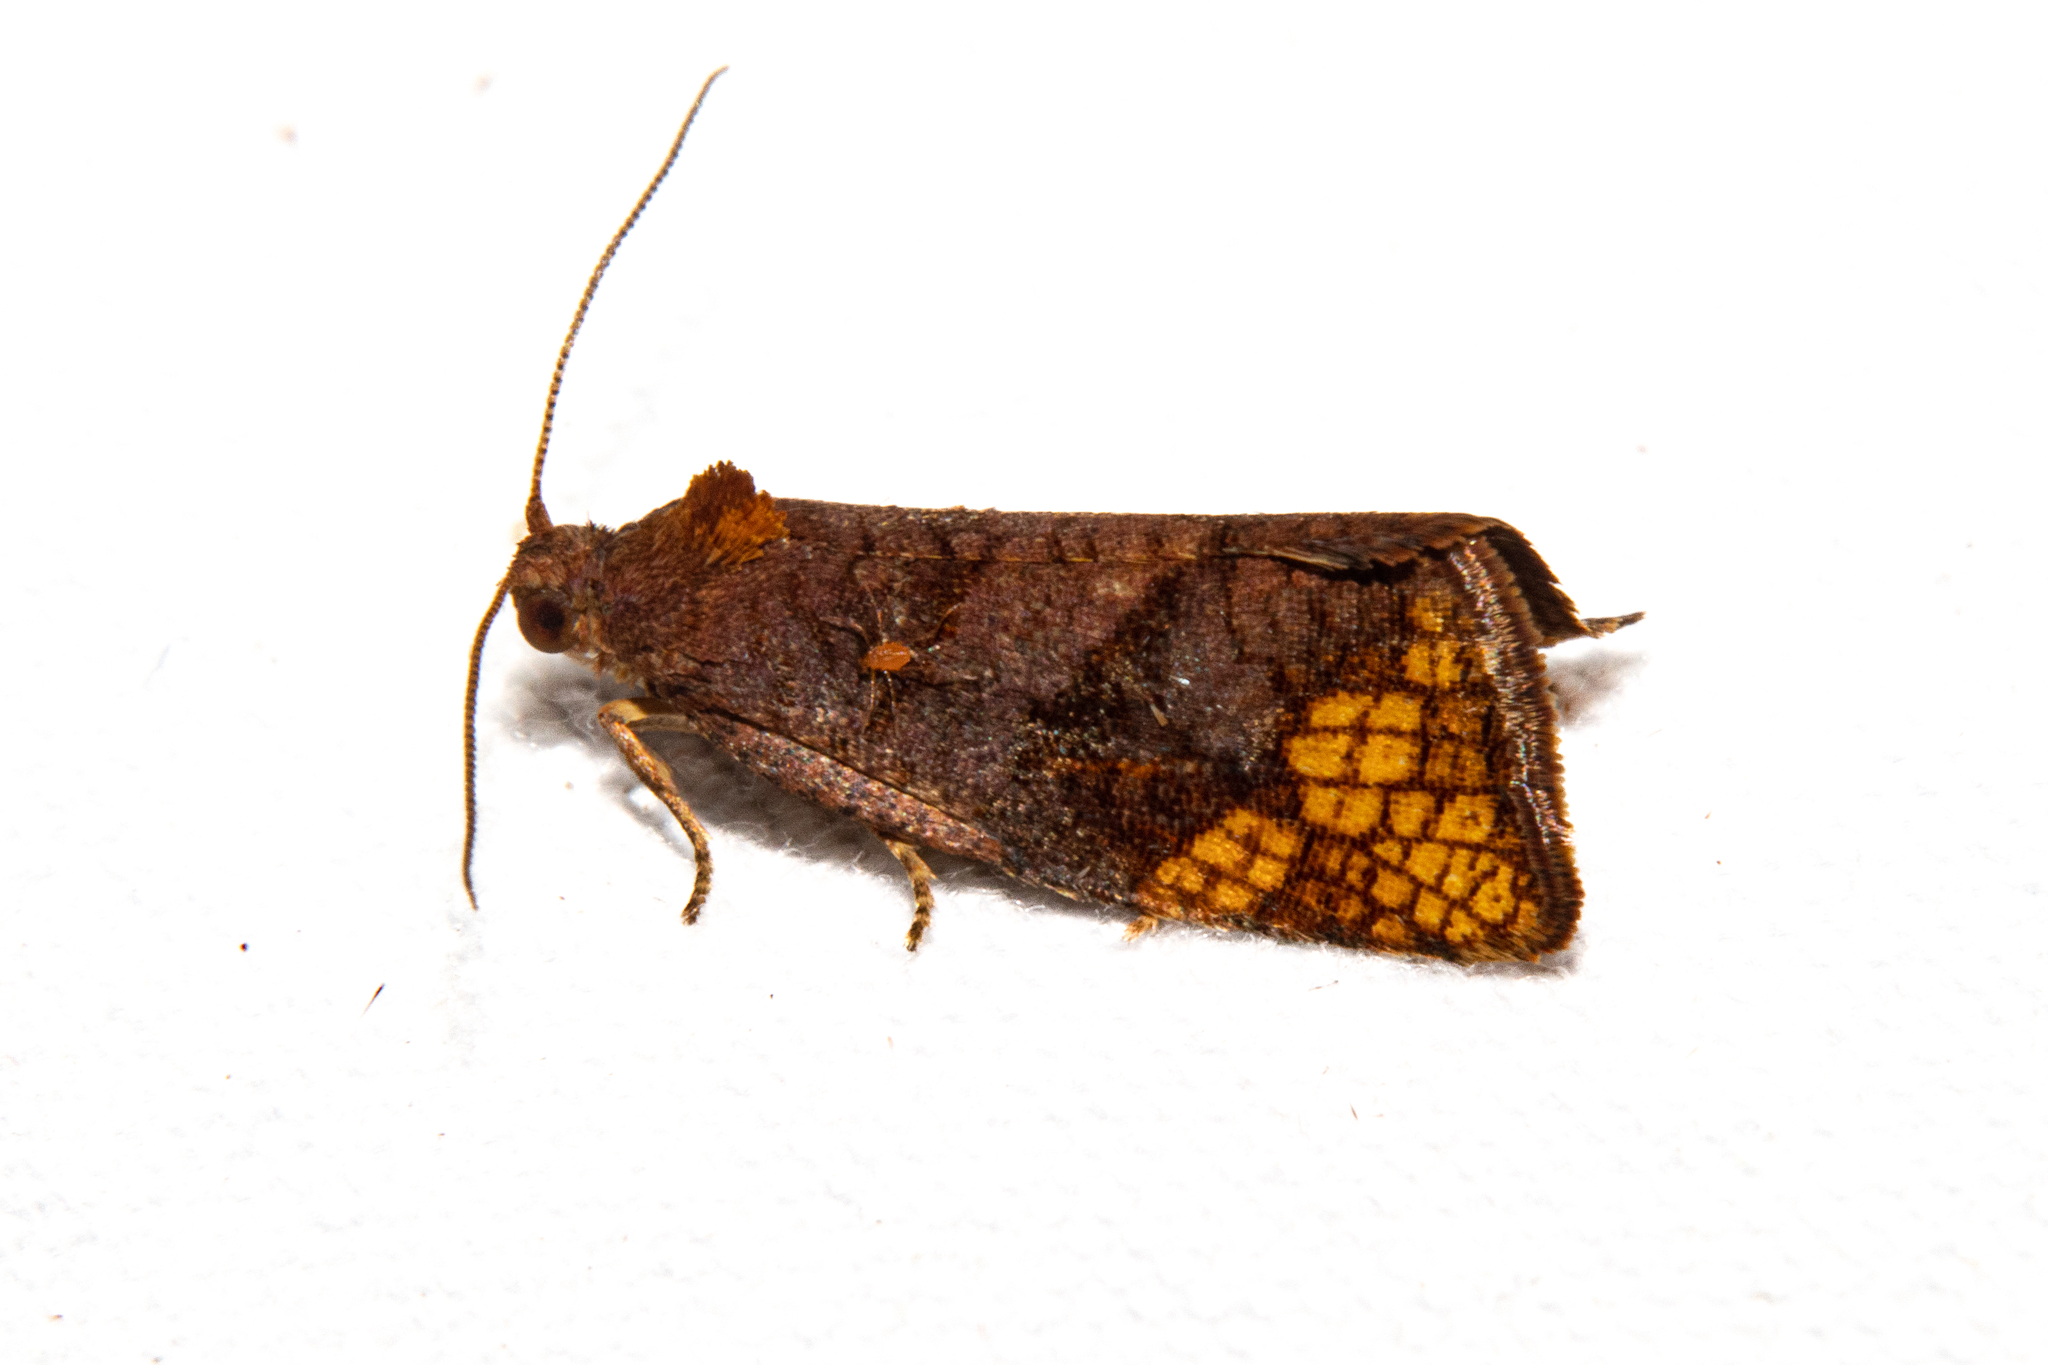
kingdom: Animalia
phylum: Arthropoda
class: Insecta
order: Lepidoptera
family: Tortricidae
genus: Pyrgotis
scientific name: Pyrgotis eudorana
